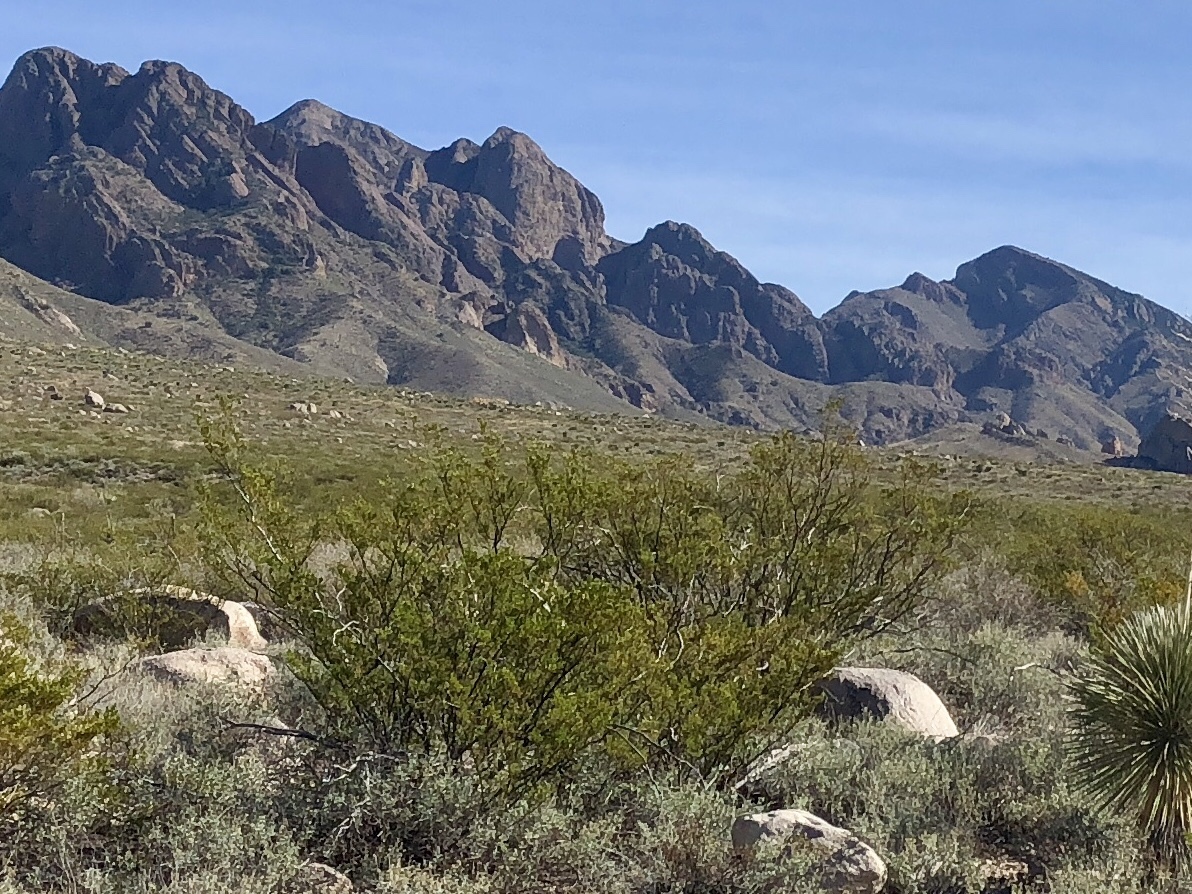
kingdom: Plantae
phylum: Tracheophyta
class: Magnoliopsida
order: Zygophyllales
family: Zygophyllaceae
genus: Larrea
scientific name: Larrea tridentata
